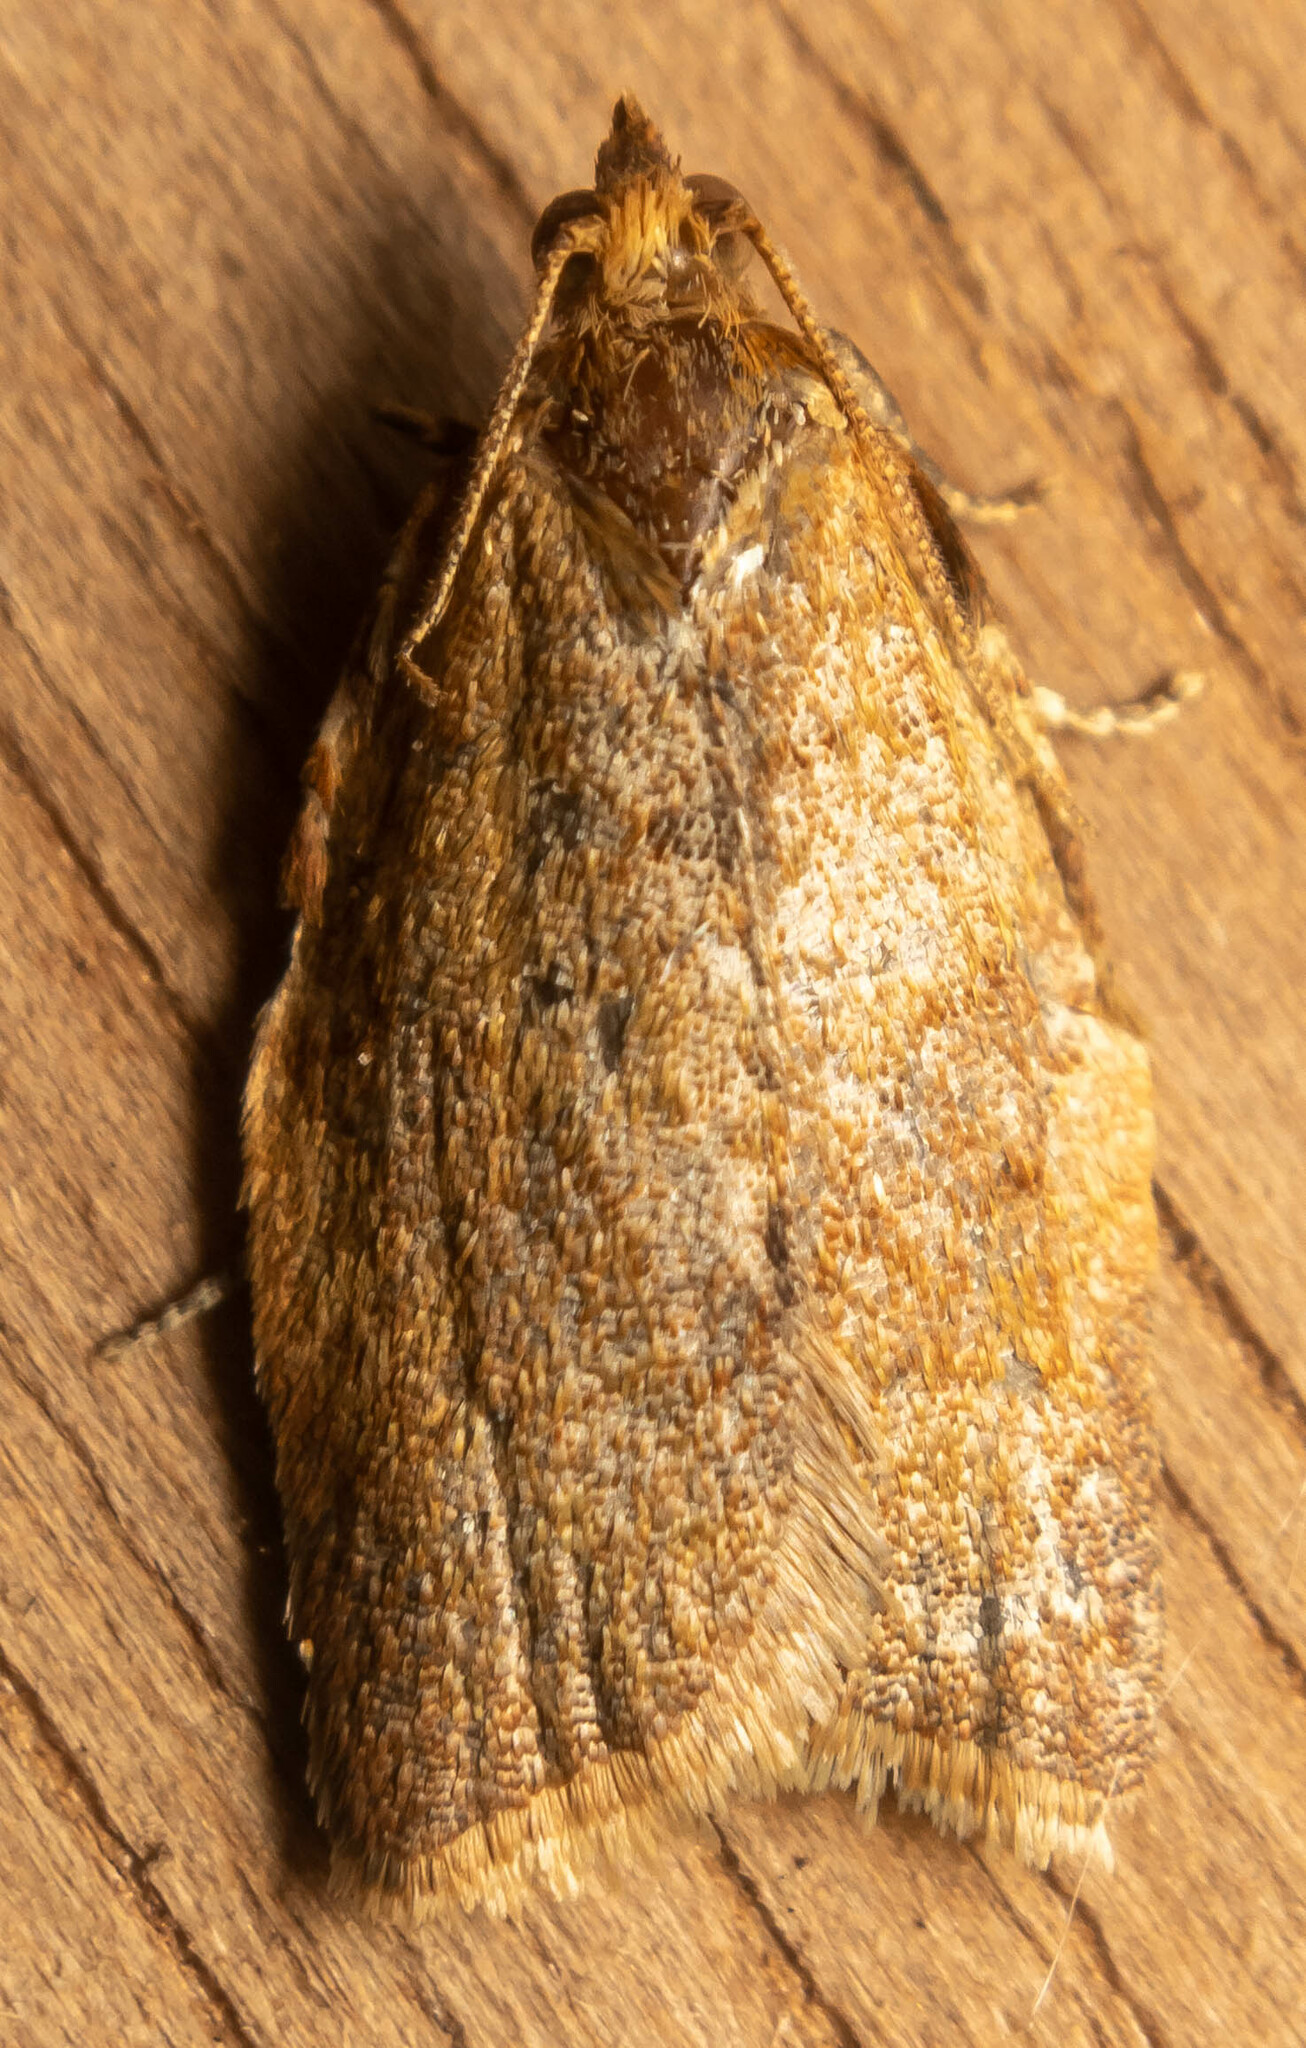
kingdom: Animalia
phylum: Arthropoda
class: Insecta
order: Lepidoptera
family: Tortricidae
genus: Aleimma
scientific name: Aleimma loeflingiana
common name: Yellow oak button
